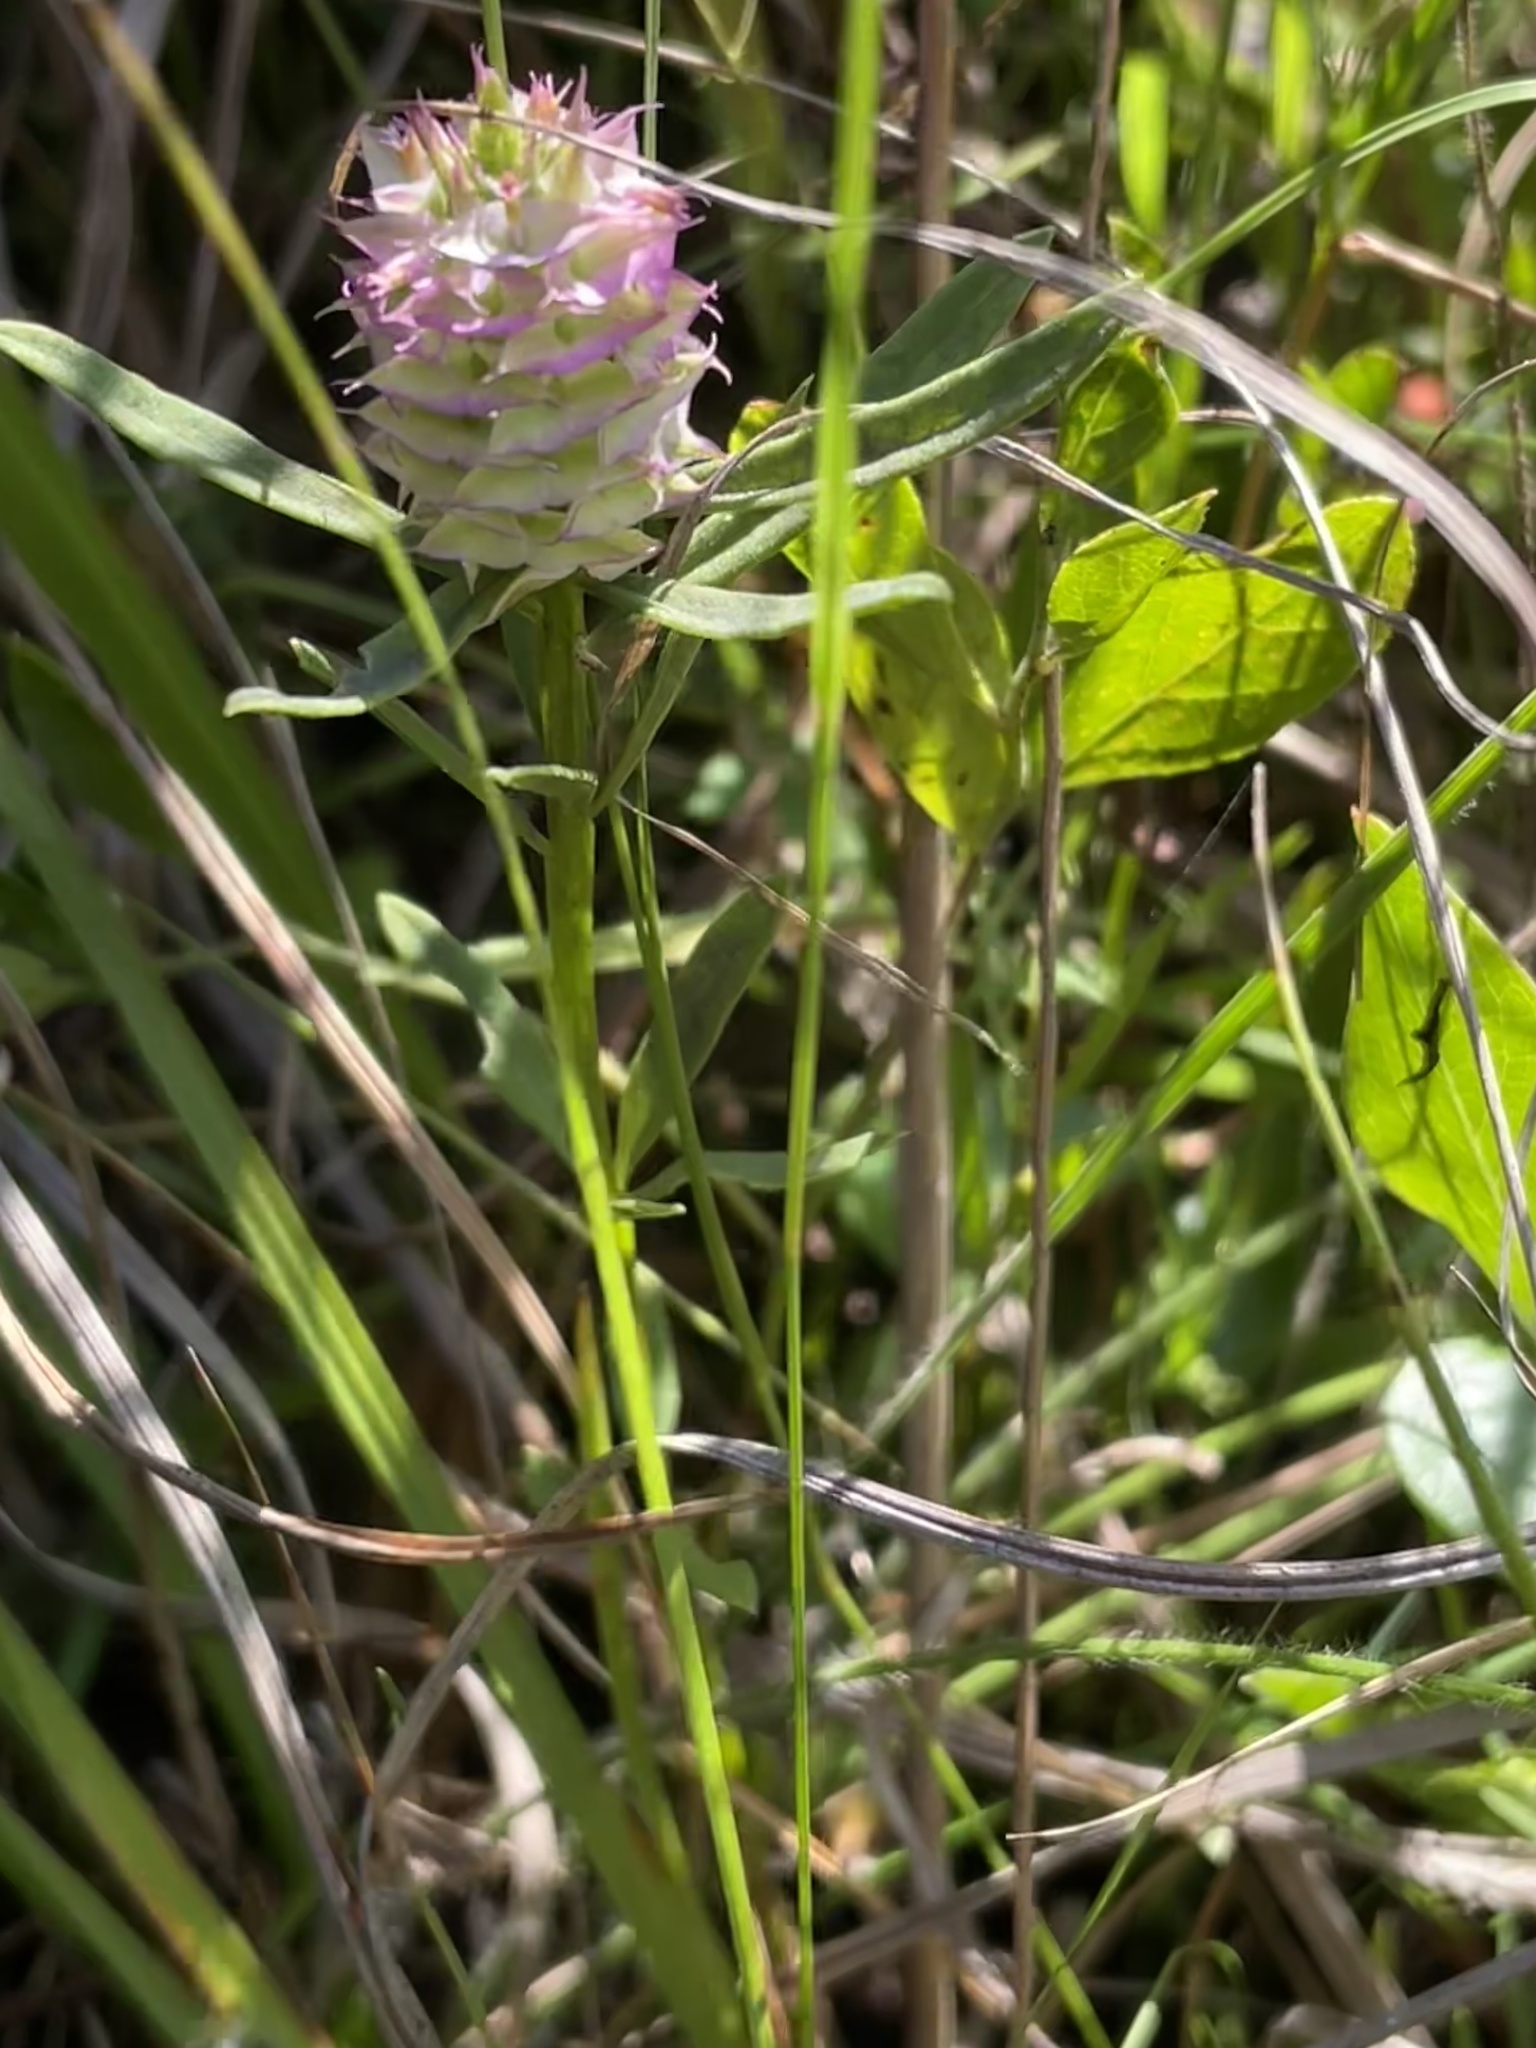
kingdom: Plantae
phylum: Tracheophyta
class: Magnoliopsida
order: Fabales
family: Polygalaceae
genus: Polygala
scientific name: Polygala cruciata
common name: Drumheads
